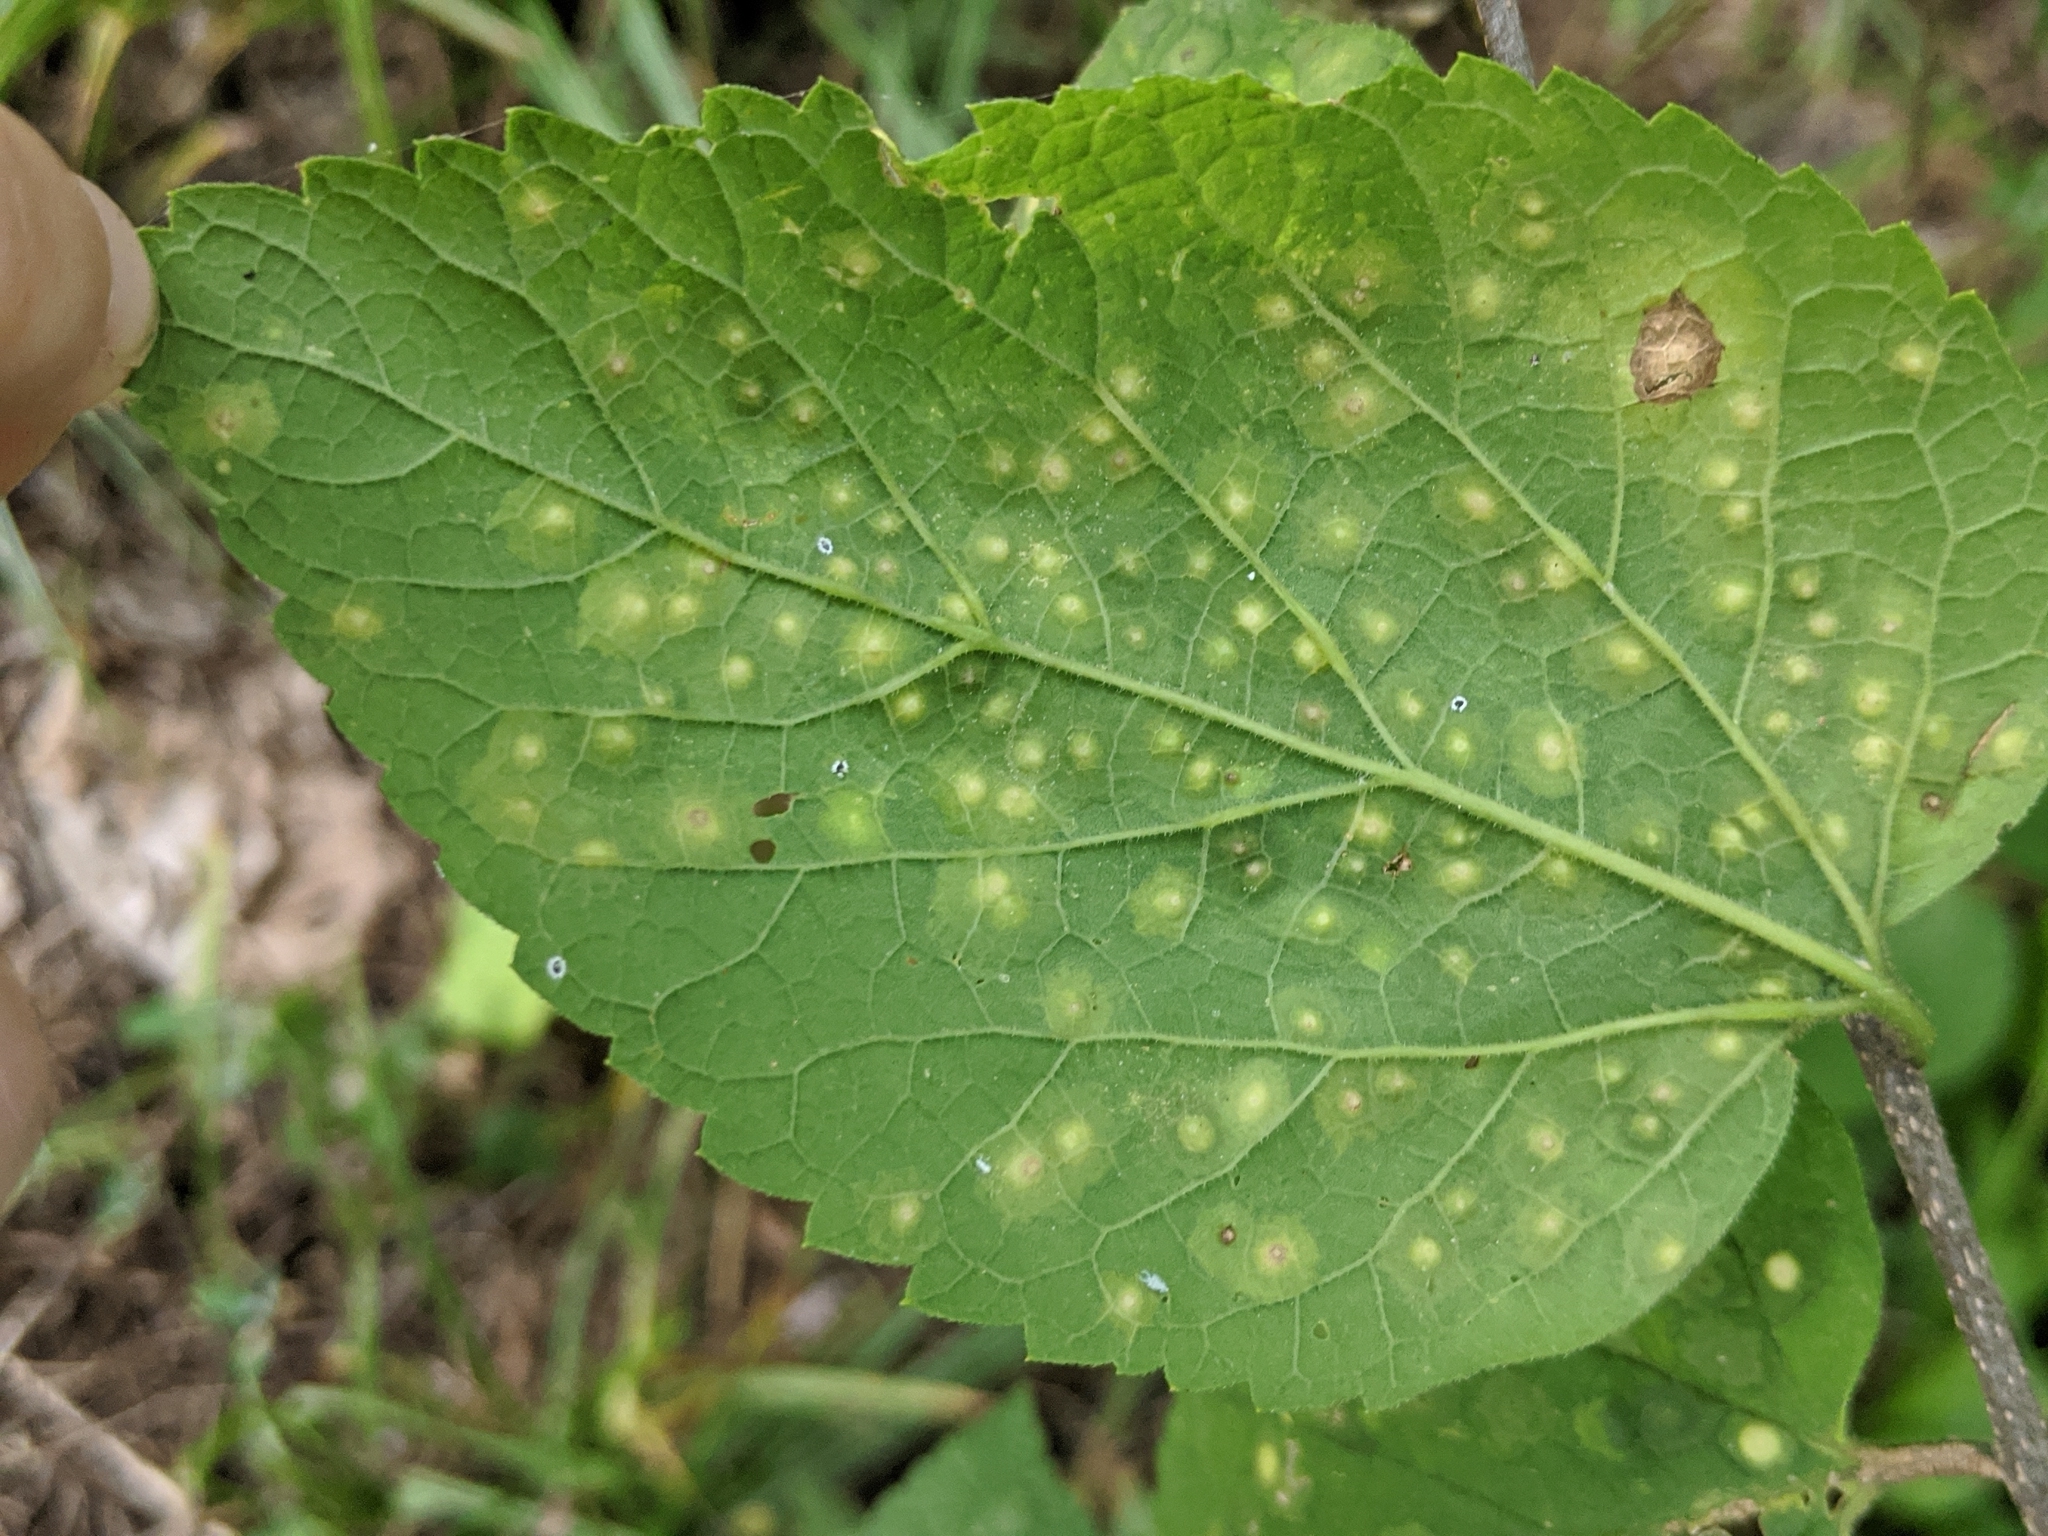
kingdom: Animalia
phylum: Arthropoda
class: Insecta
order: Hemiptera
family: Aphalaridae
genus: Pachypsylla
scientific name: Pachypsylla celtidisvesicula
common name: Hackberry blister gall psyllid
